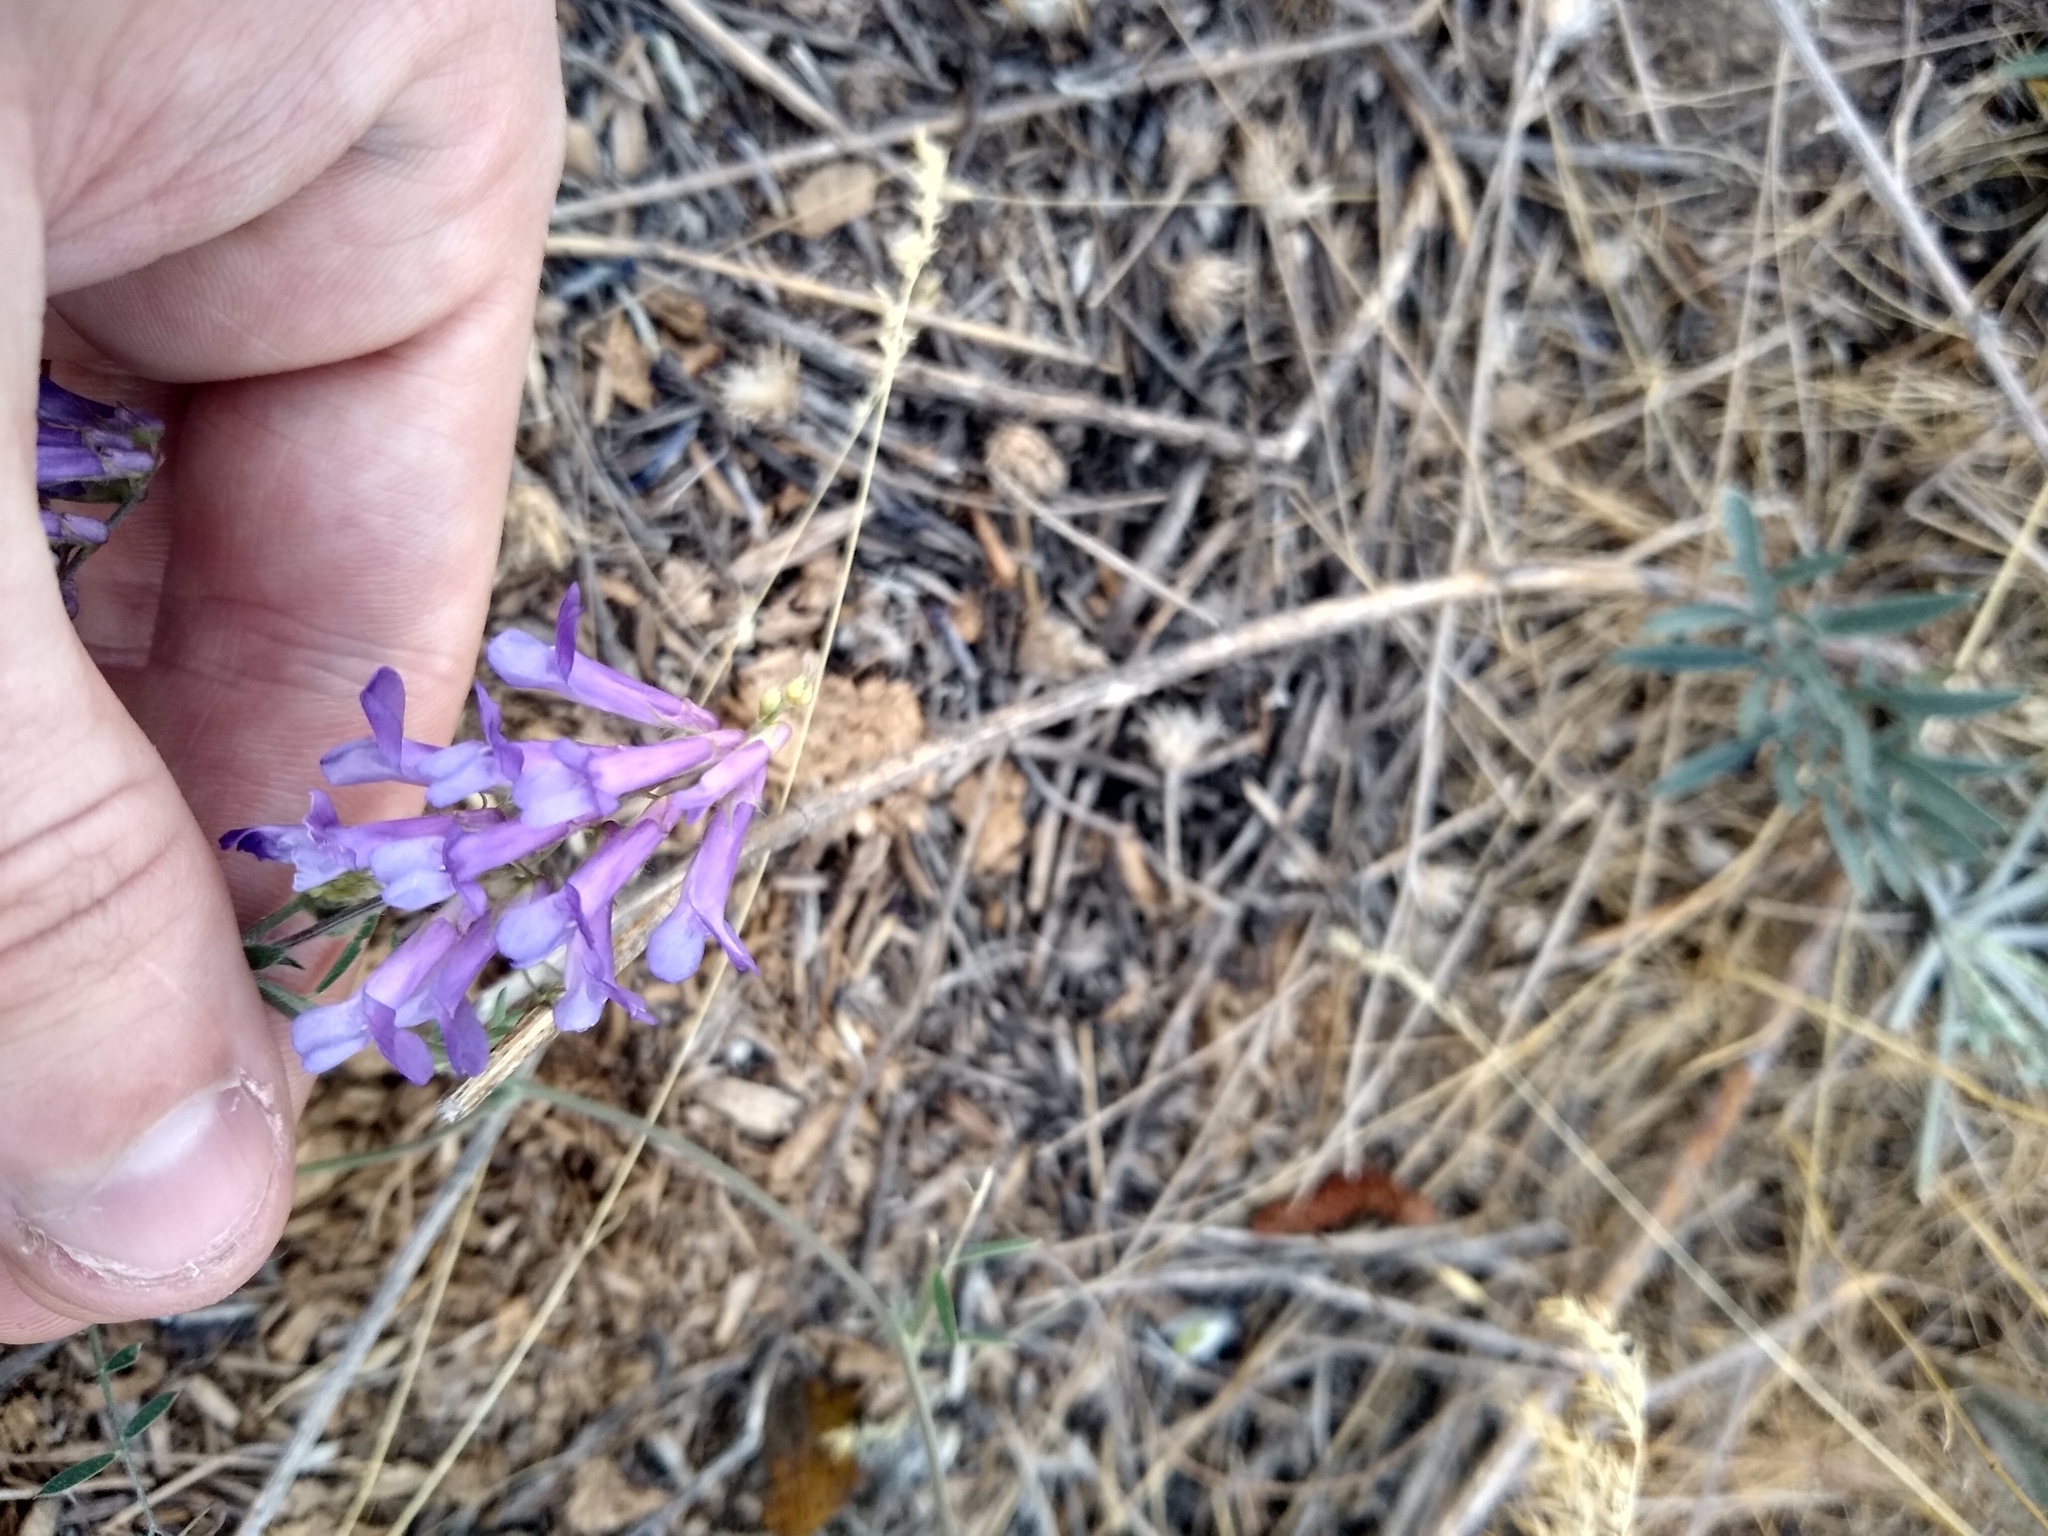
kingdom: Plantae
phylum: Tracheophyta
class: Magnoliopsida
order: Fabales
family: Fabaceae
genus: Vicia
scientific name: Vicia villosa
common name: Fodder vetch
